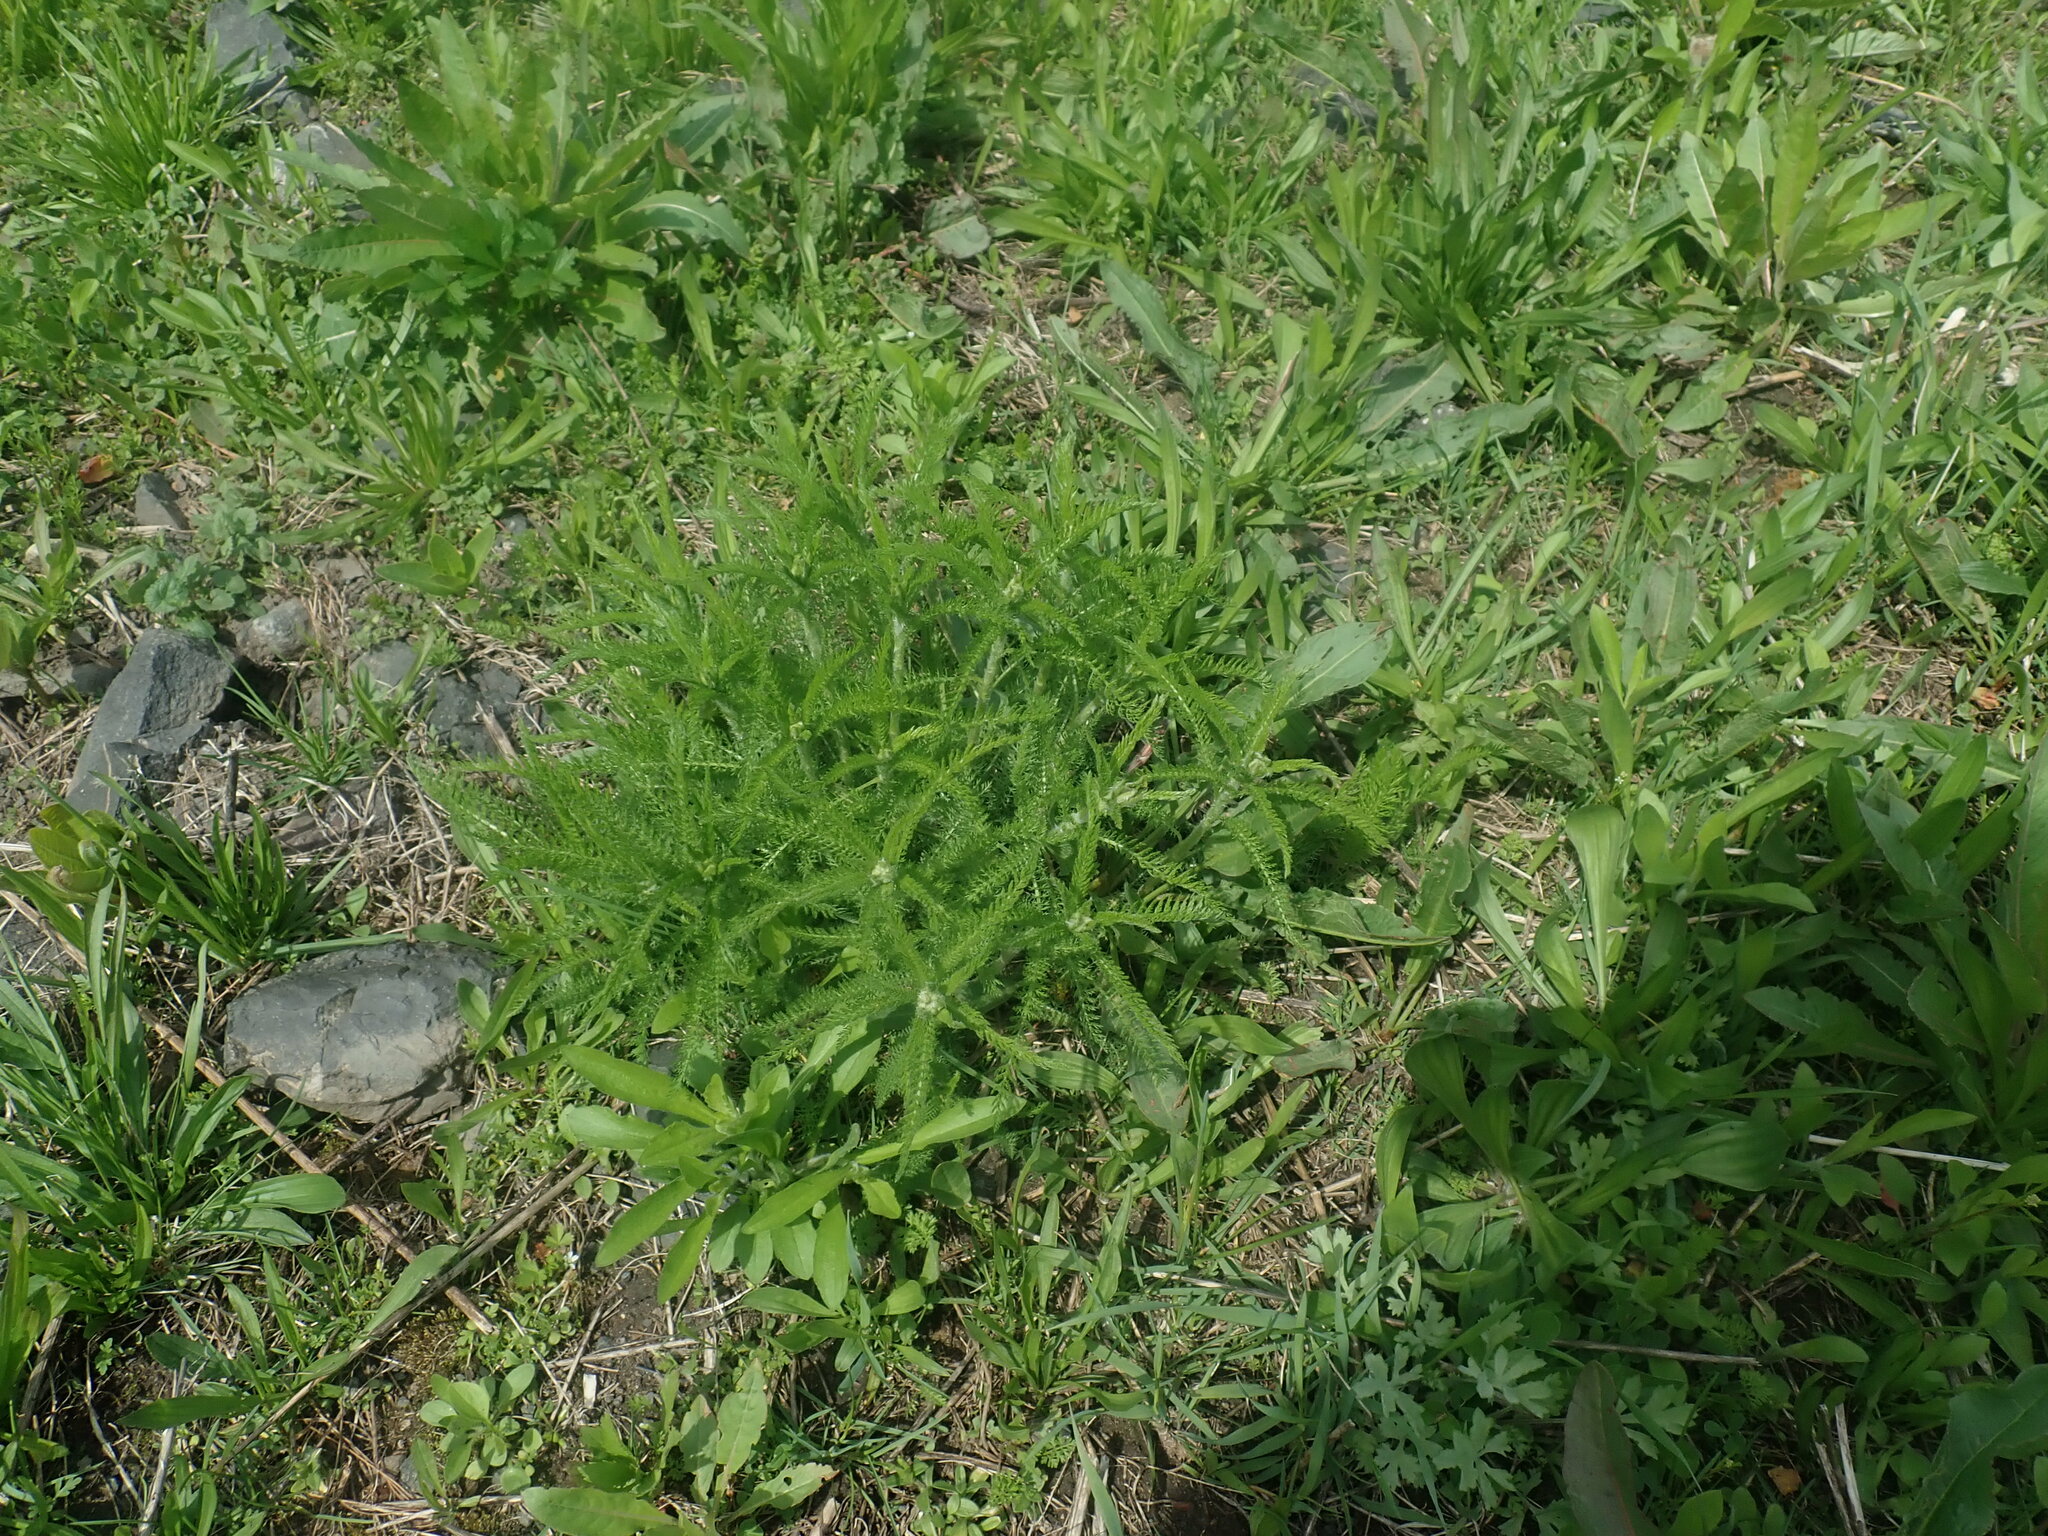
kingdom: Plantae
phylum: Tracheophyta
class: Magnoliopsida
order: Asterales
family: Asteraceae
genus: Achillea
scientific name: Achillea millefolium
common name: Yarrow
